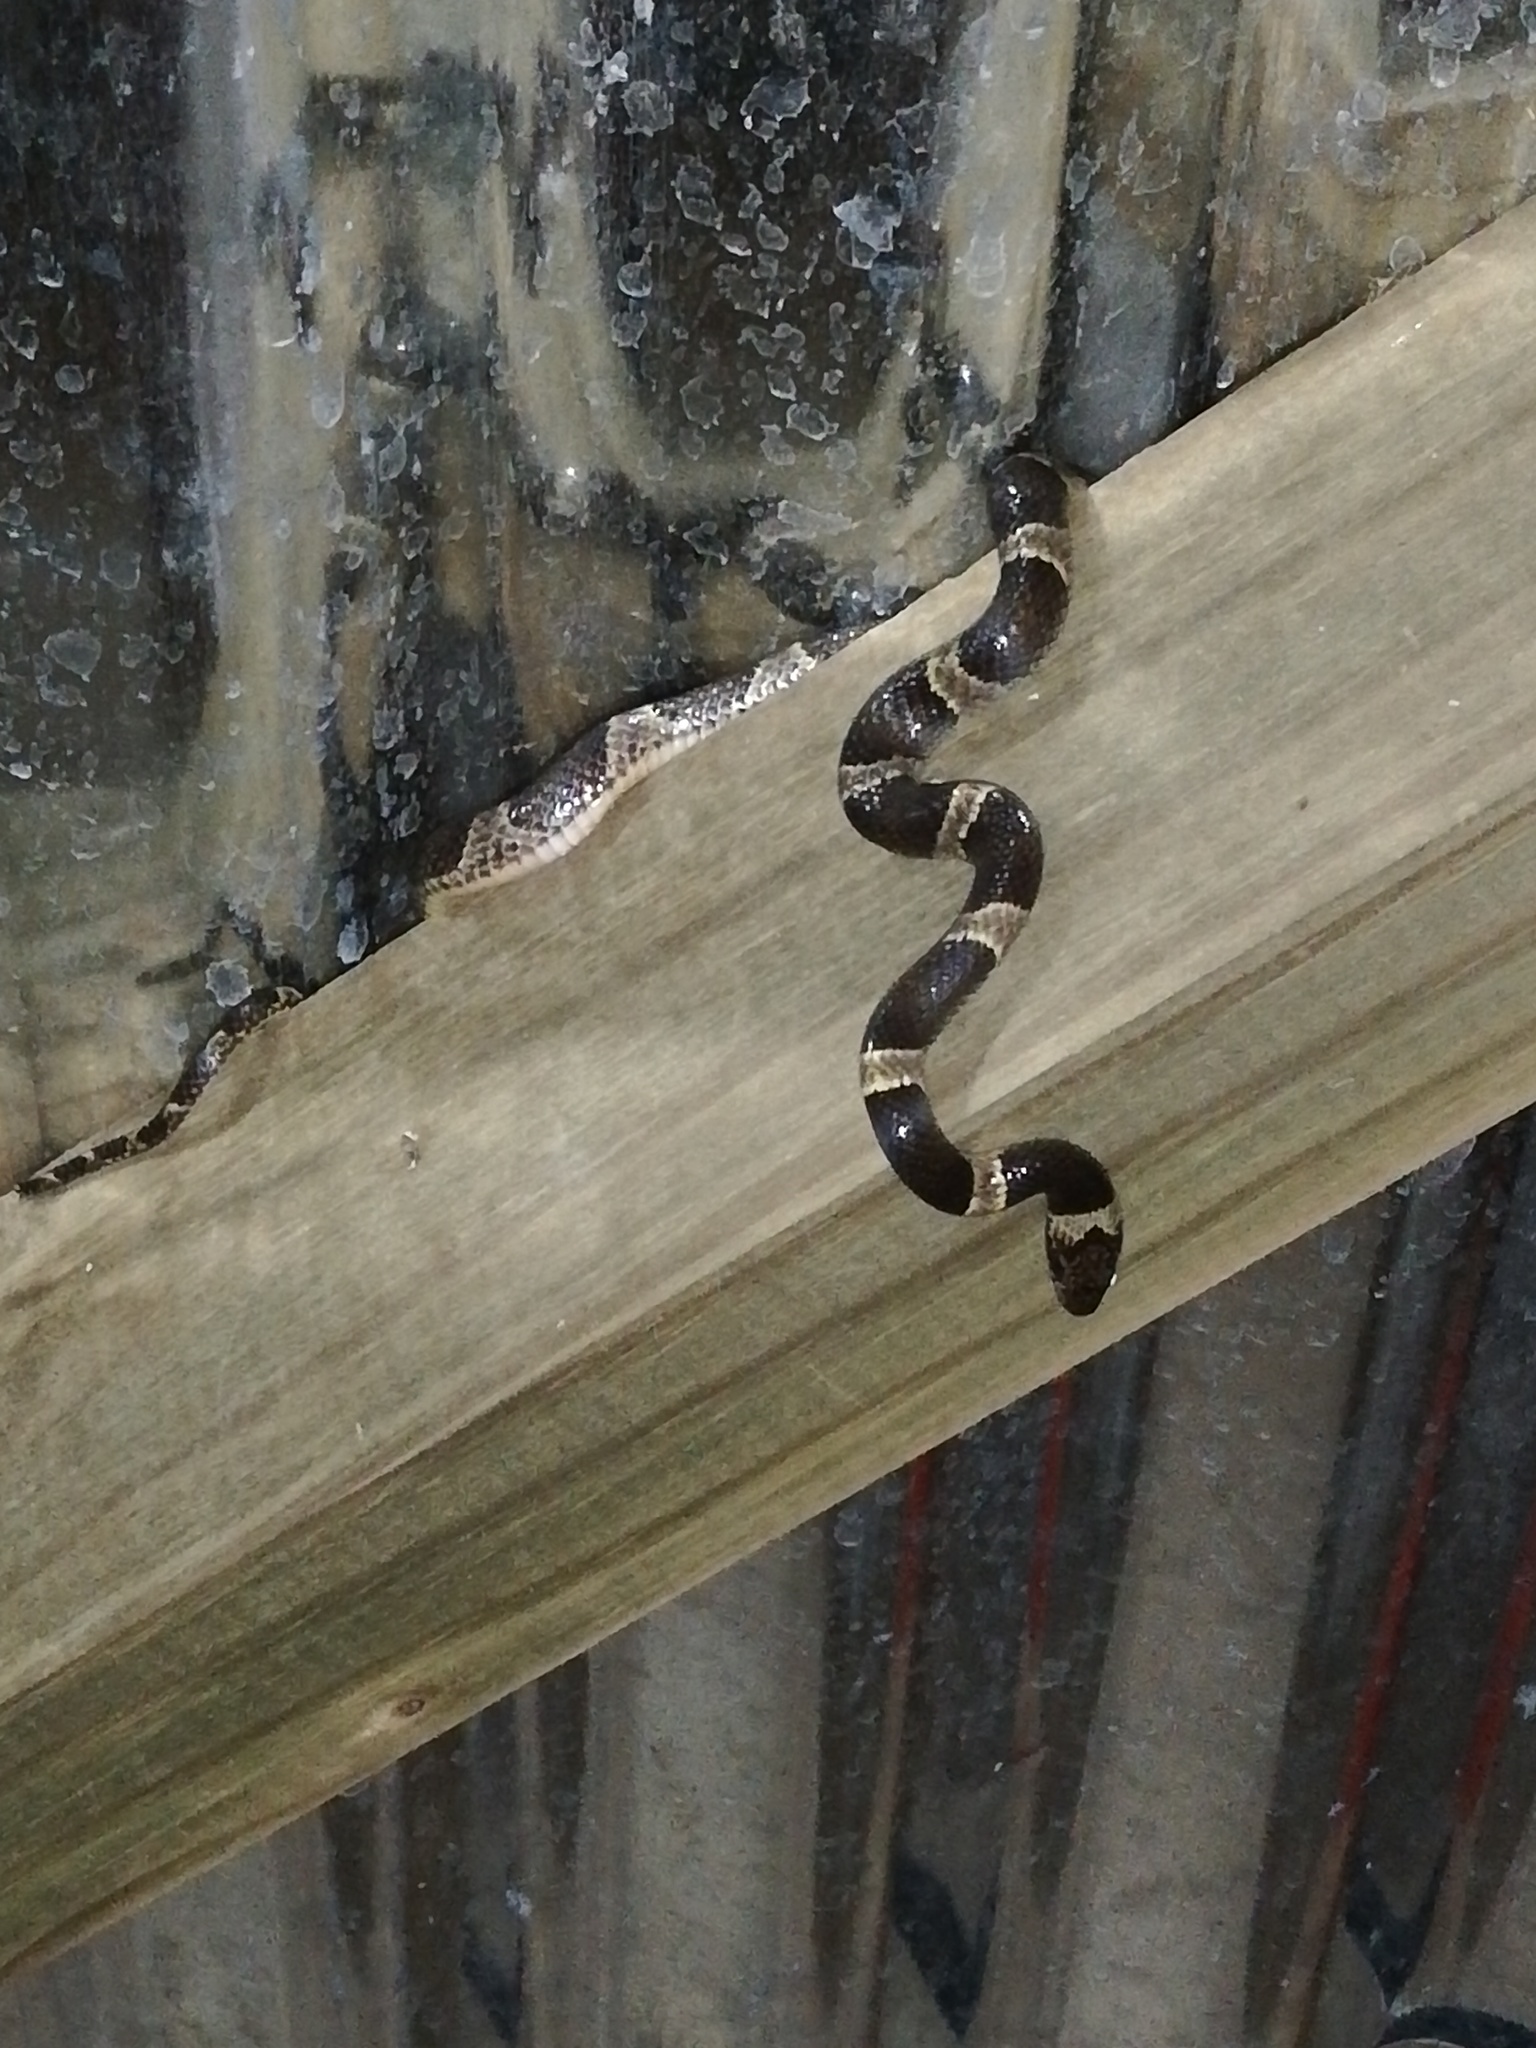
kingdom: Animalia
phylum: Chordata
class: Squamata
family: Colubridae
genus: Leptodeira
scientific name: Leptodeira nigrofasciata
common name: Black-banded cat-eyed snake
